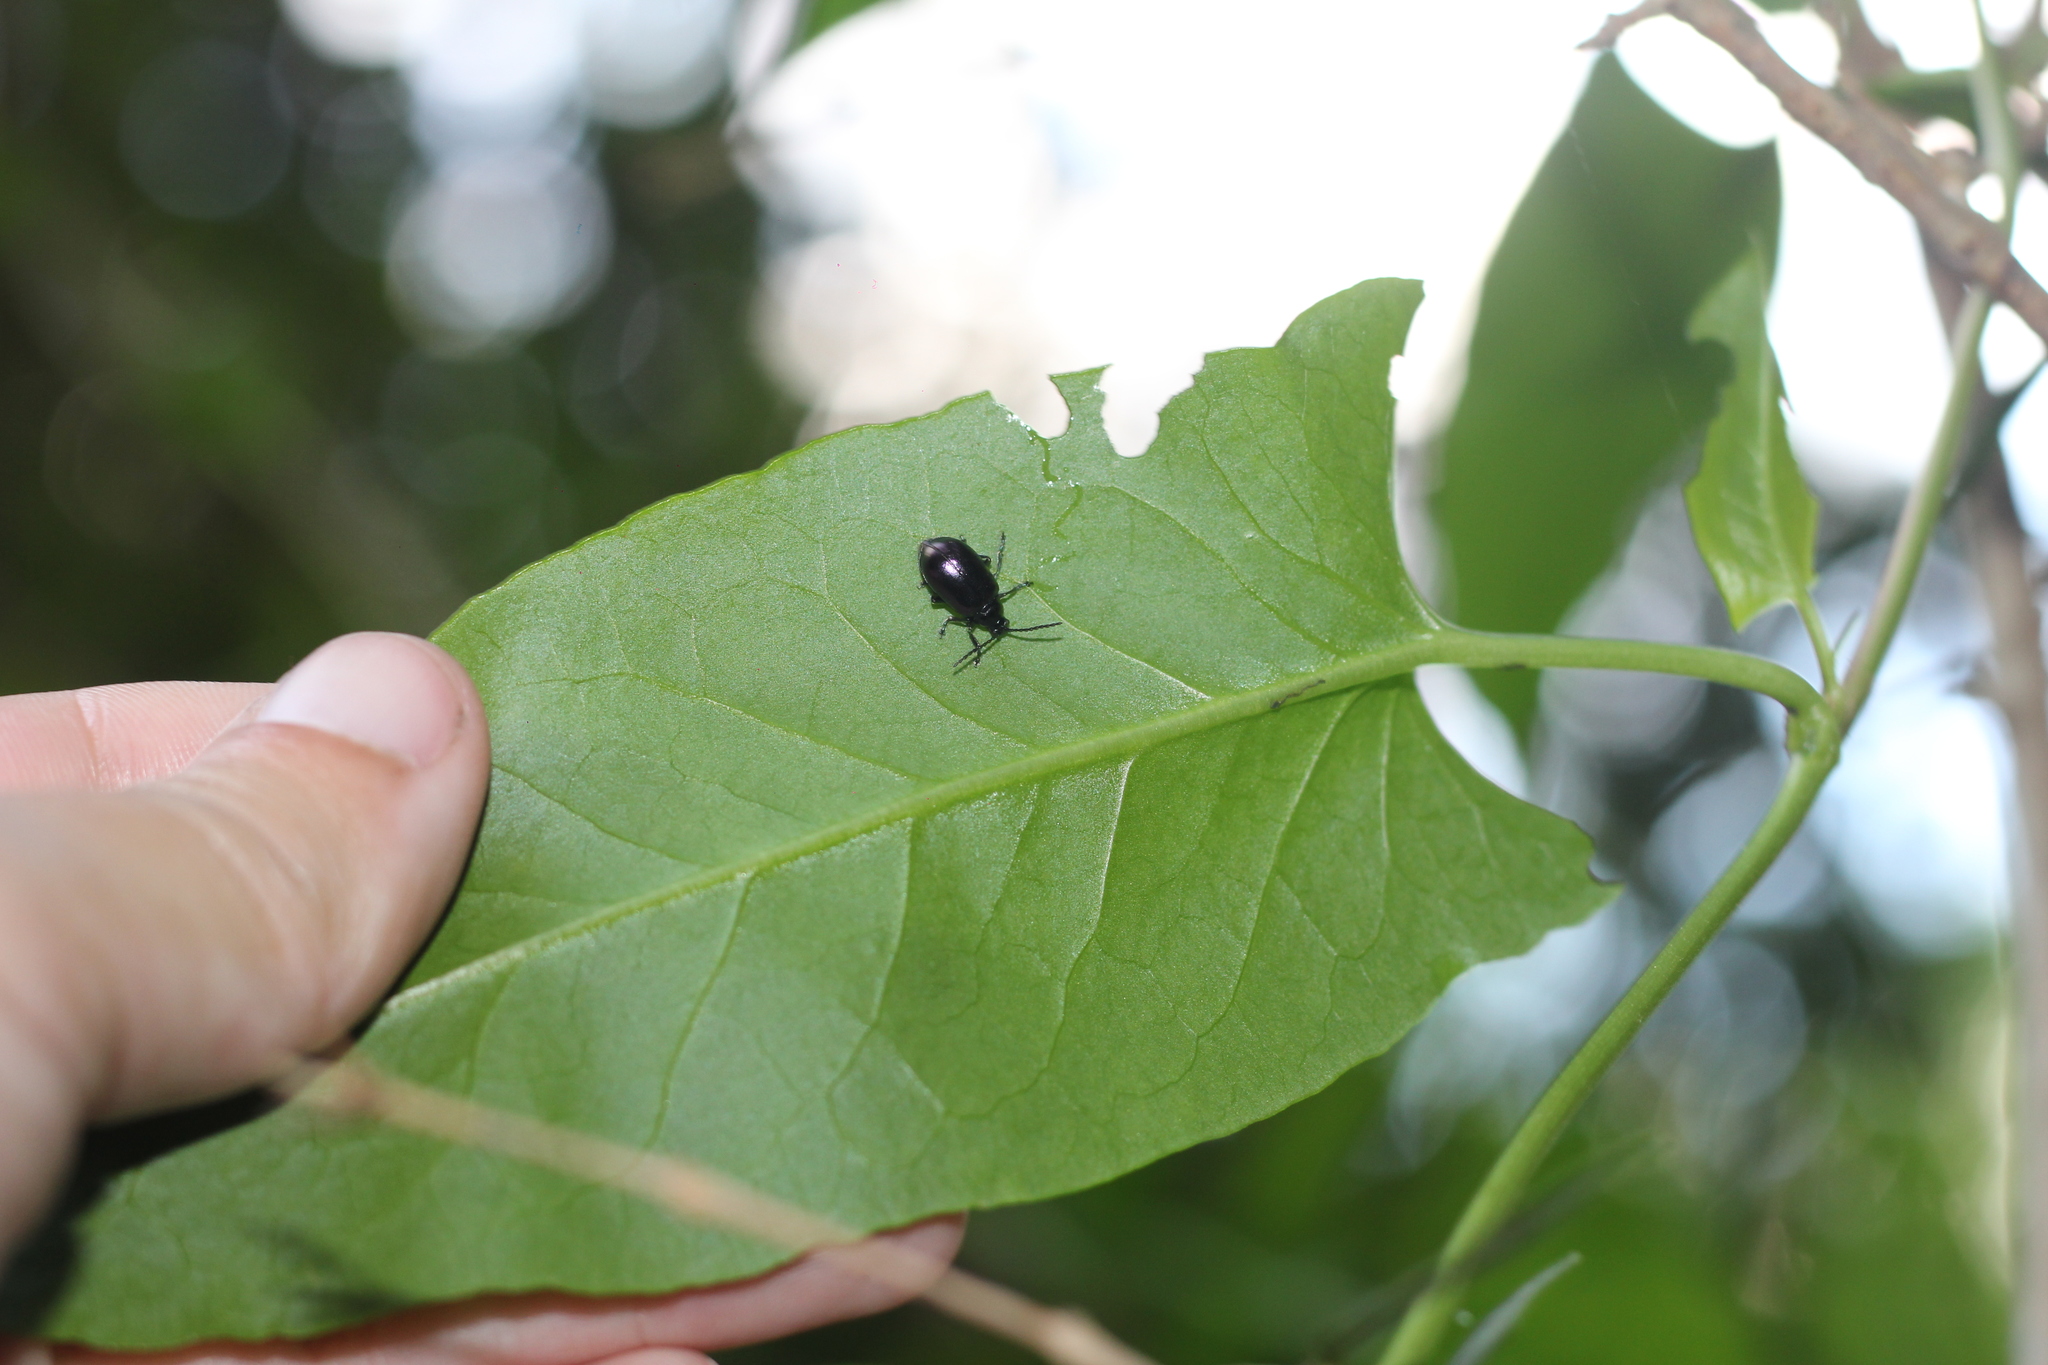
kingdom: Animalia
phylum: Arthropoda
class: Insecta
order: Coleoptera
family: Chrysomelidae
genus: Macrohaltica
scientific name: Macrohaltica
